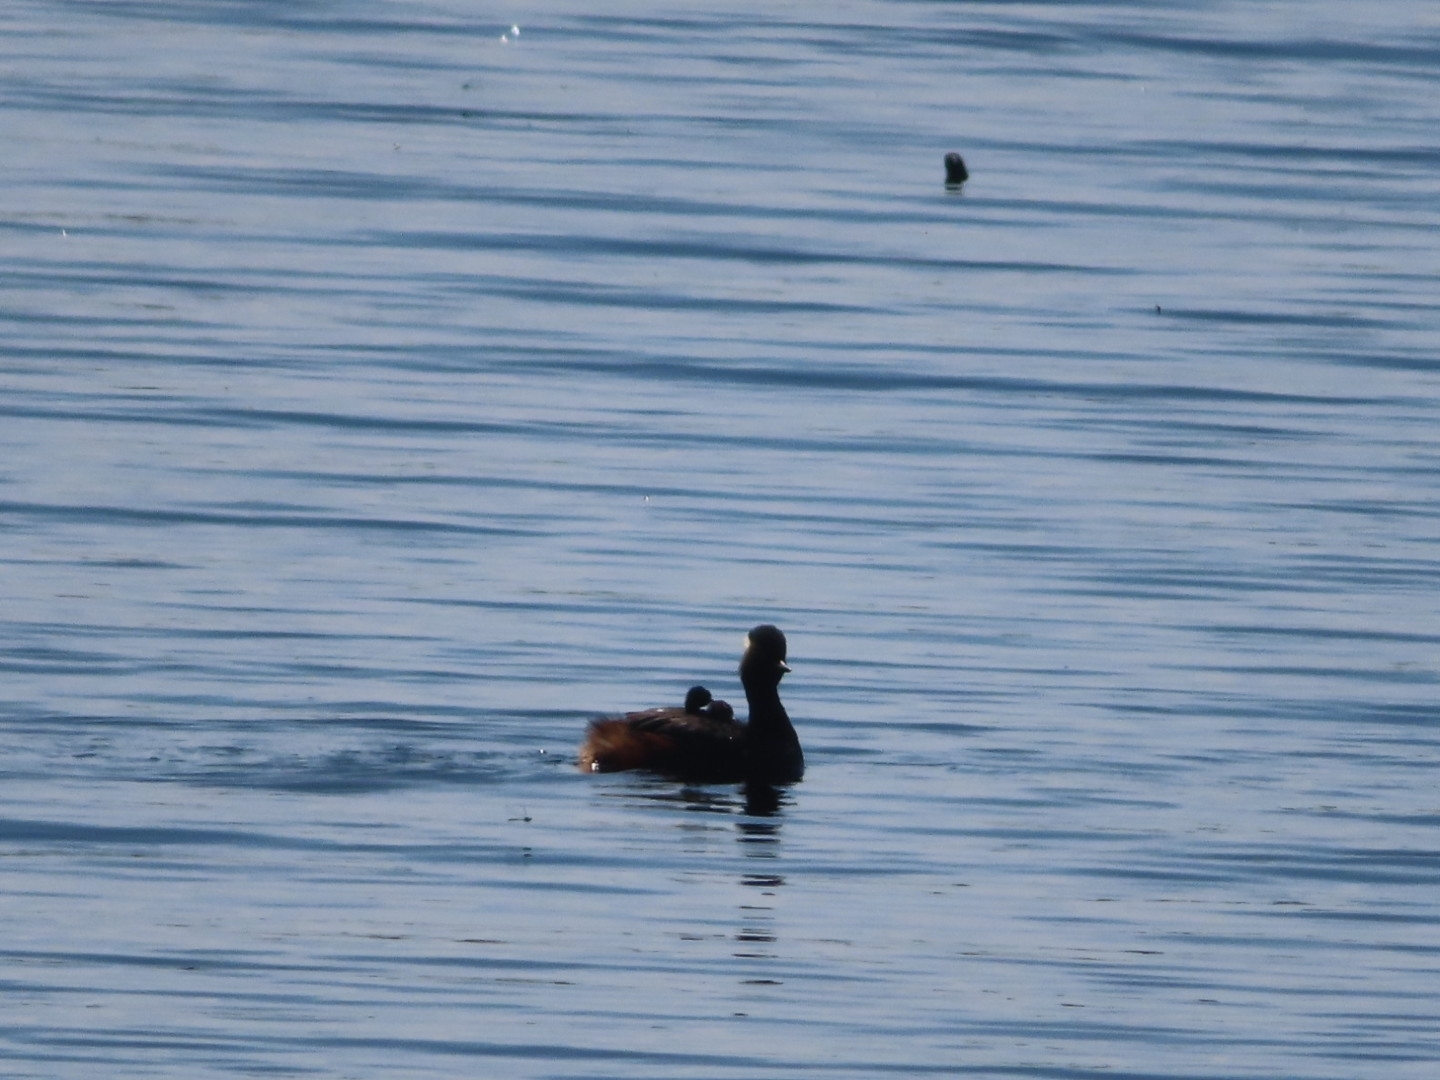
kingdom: Animalia
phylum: Chordata
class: Aves
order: Podicipediformes
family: Podicipedidae
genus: Podiceps
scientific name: Podiceps nigricollis
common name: Black-necked grebe
